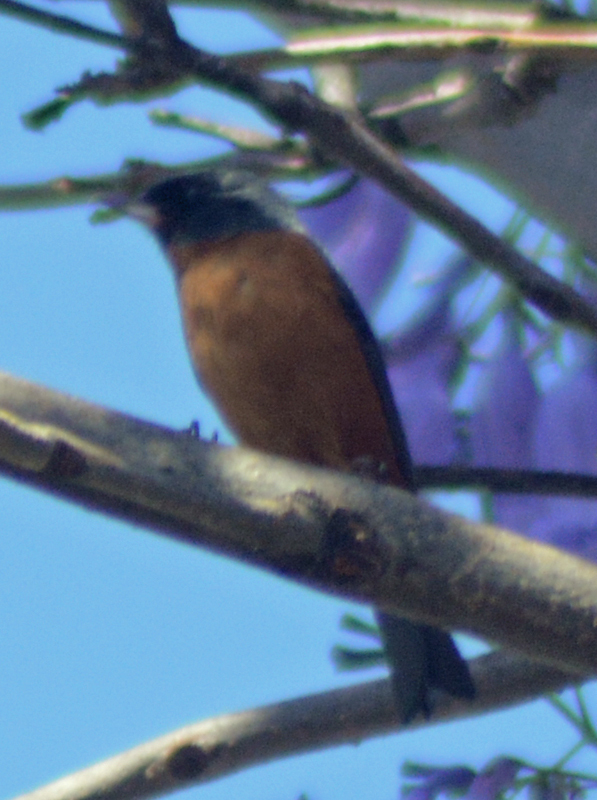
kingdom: Animalia
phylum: Chordata
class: Aves
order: Passeriformes
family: Thraupidae
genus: Diglossa
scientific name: Diglossa baritula
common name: Cinnamon-bellied flowerpiercer
